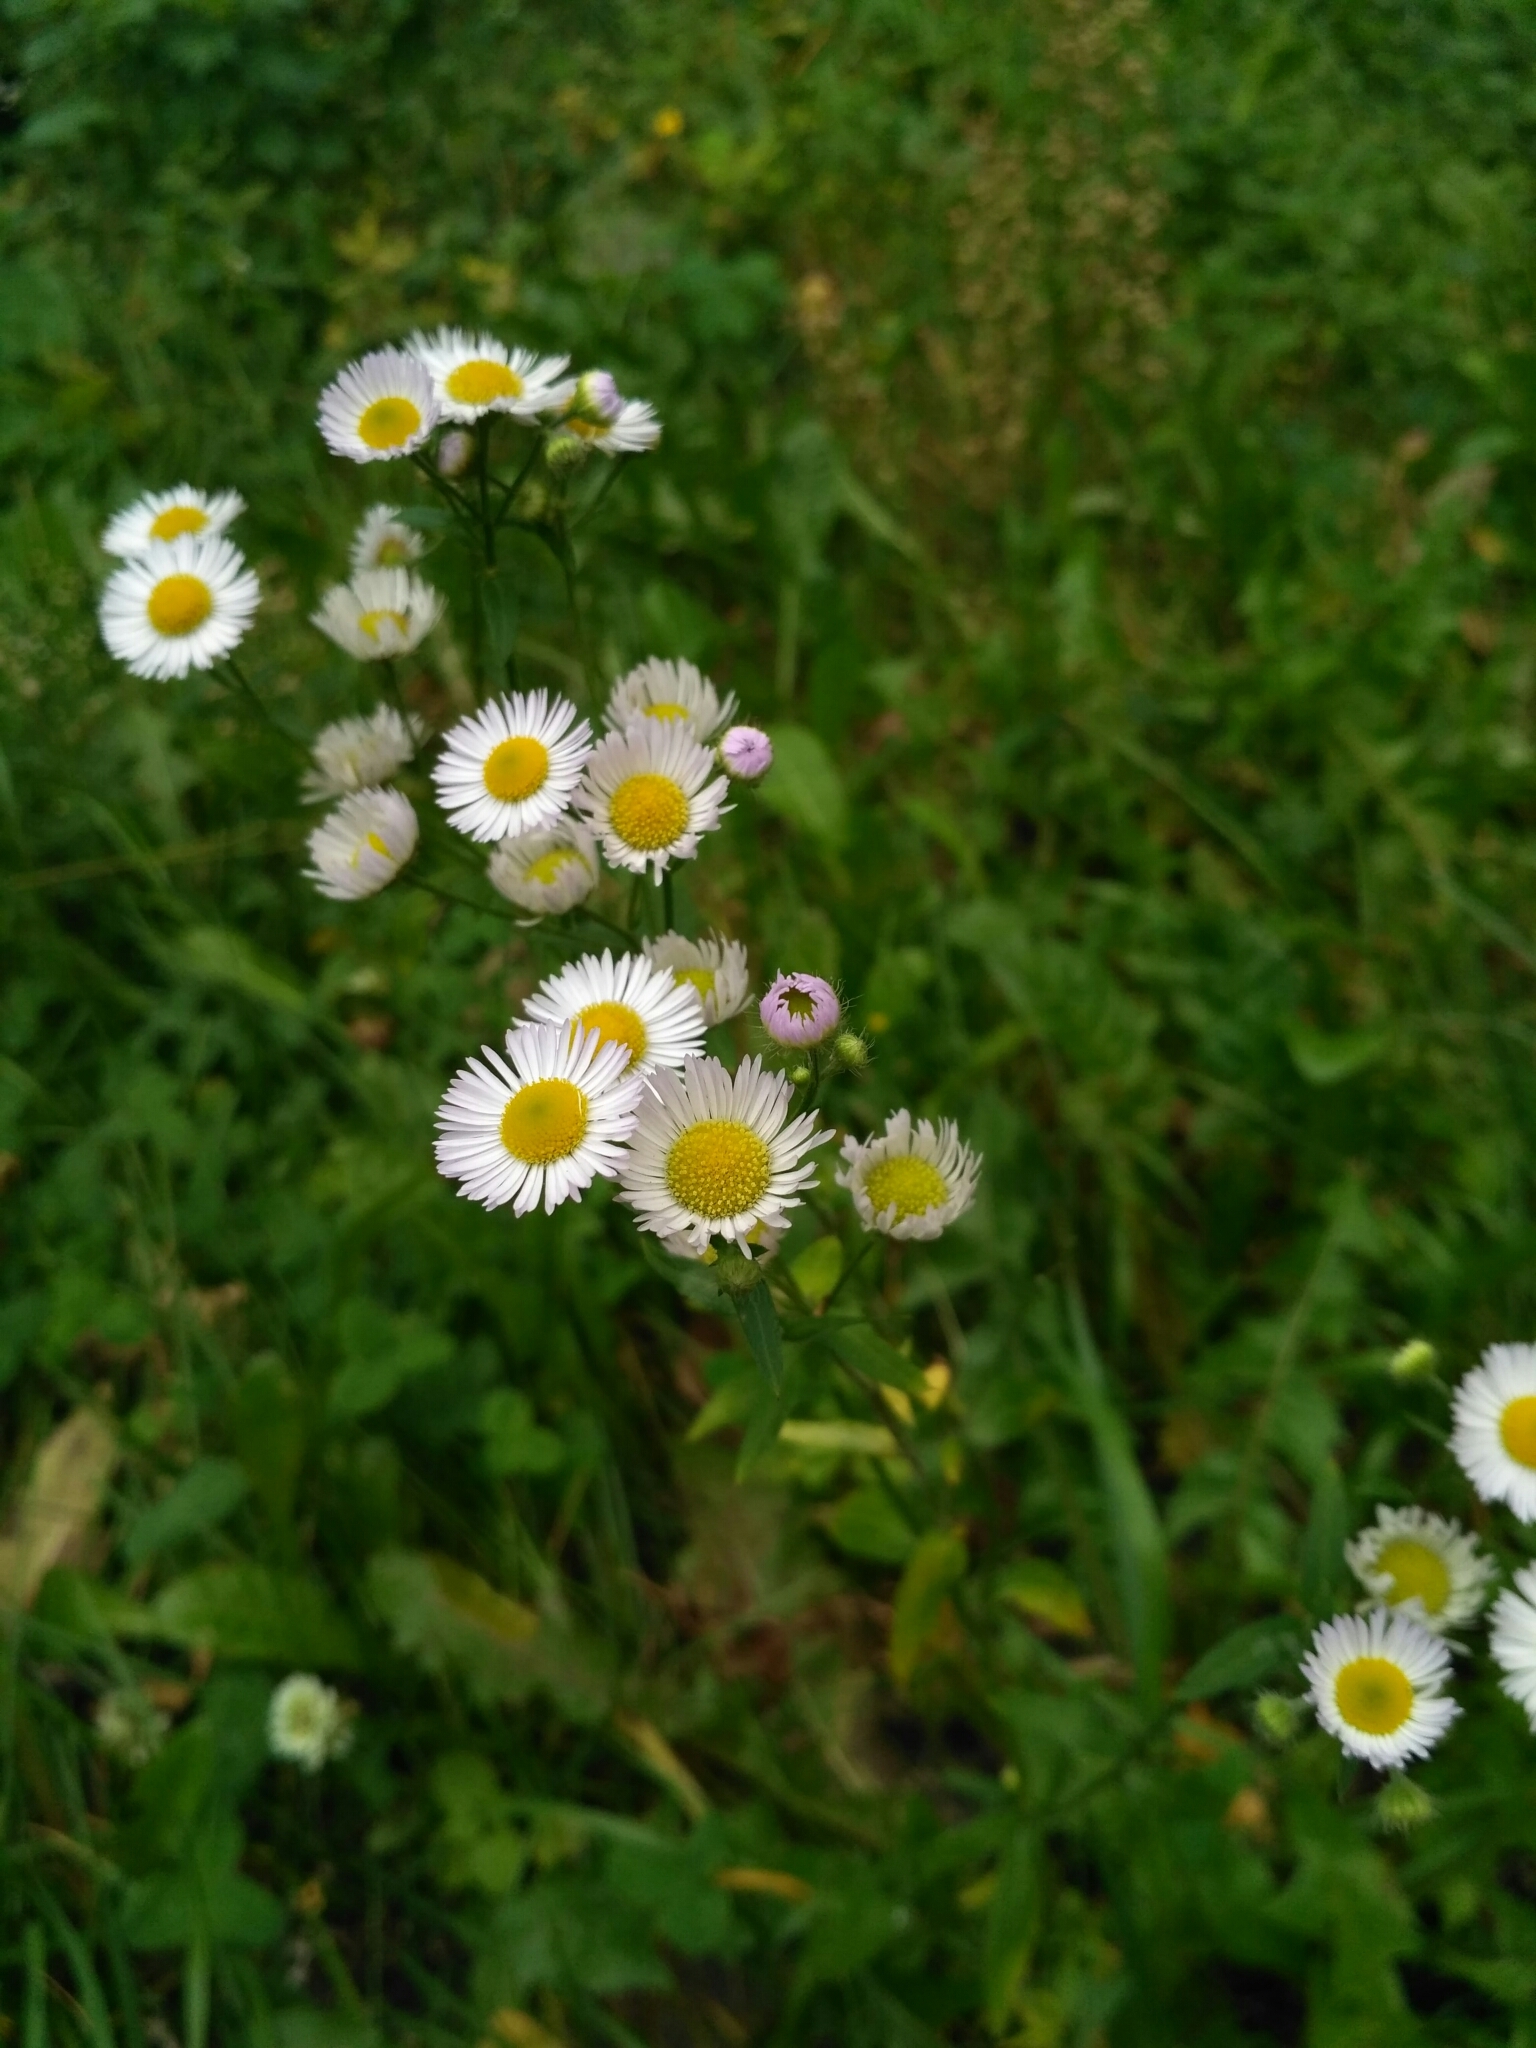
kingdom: Plantae
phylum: Tracheophyta
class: Magnoliopsida
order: Asterales
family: Asteraceae
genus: Erigeron
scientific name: Erigeron annuus
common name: Tall fleabane
